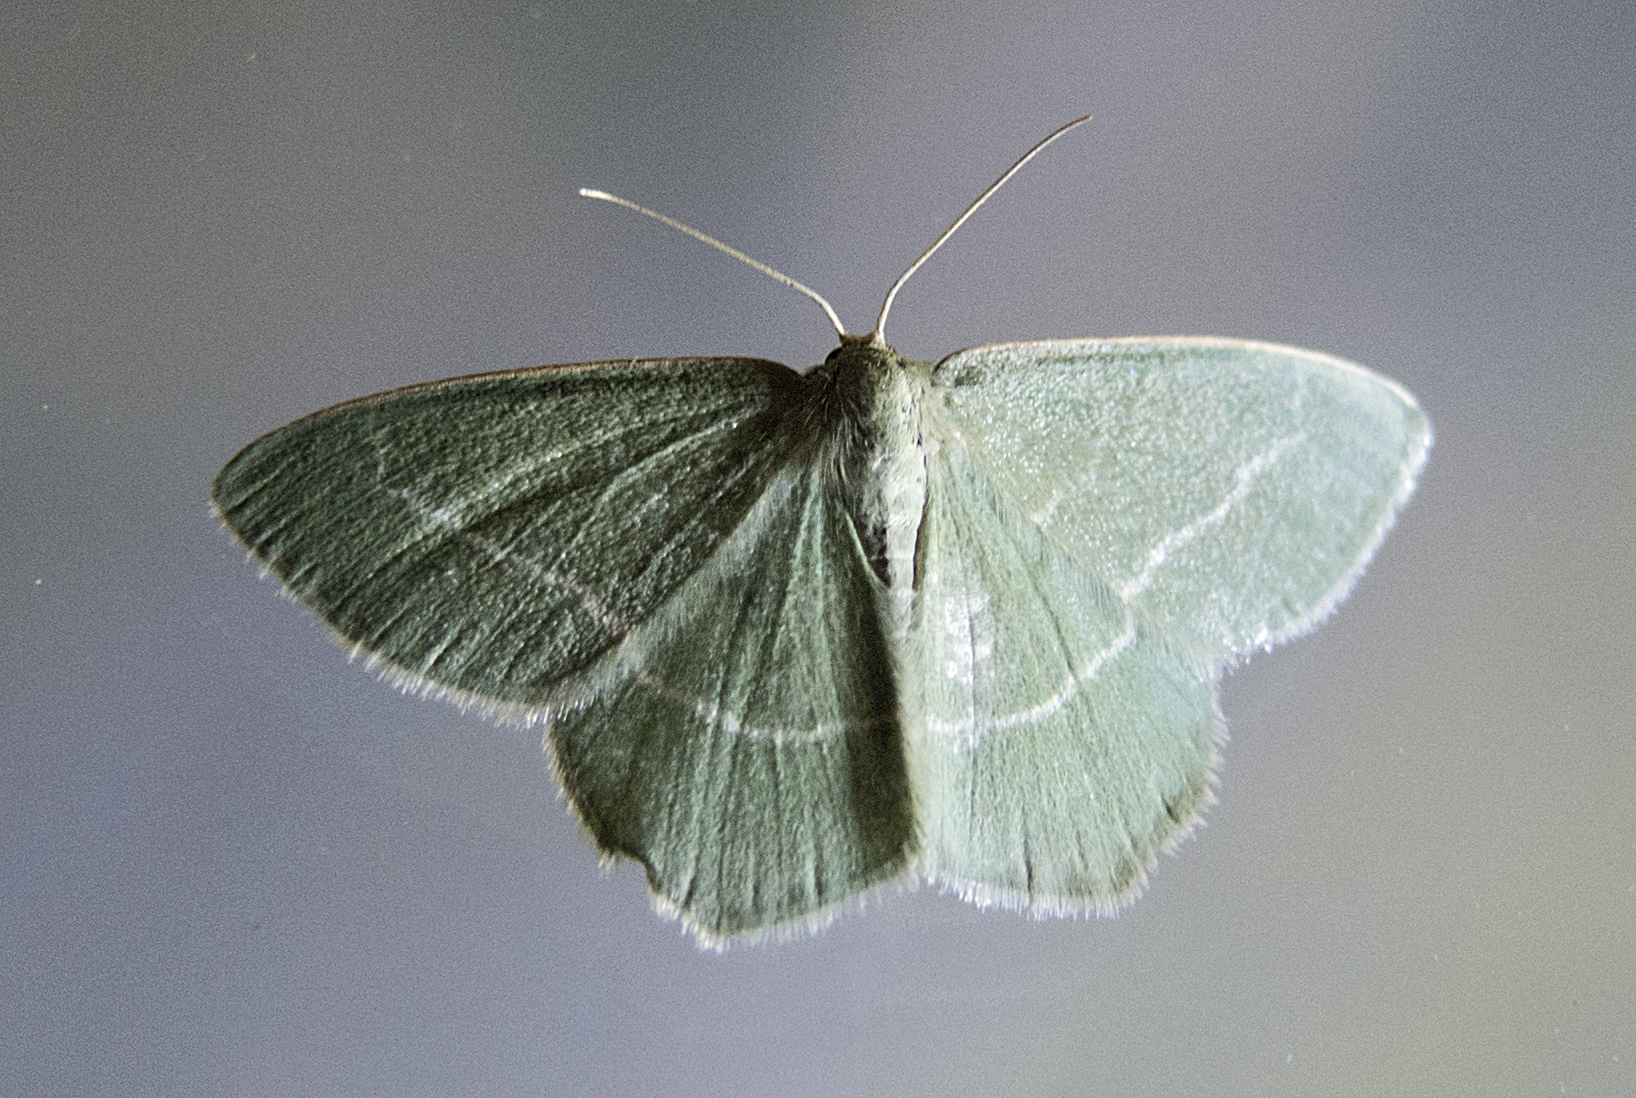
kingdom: Animalia
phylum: Arthropoda
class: Insecta
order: Lepidoptera
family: Geometridae
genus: Chlorissa
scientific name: Chlorissa viridata
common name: Small grass emerald
